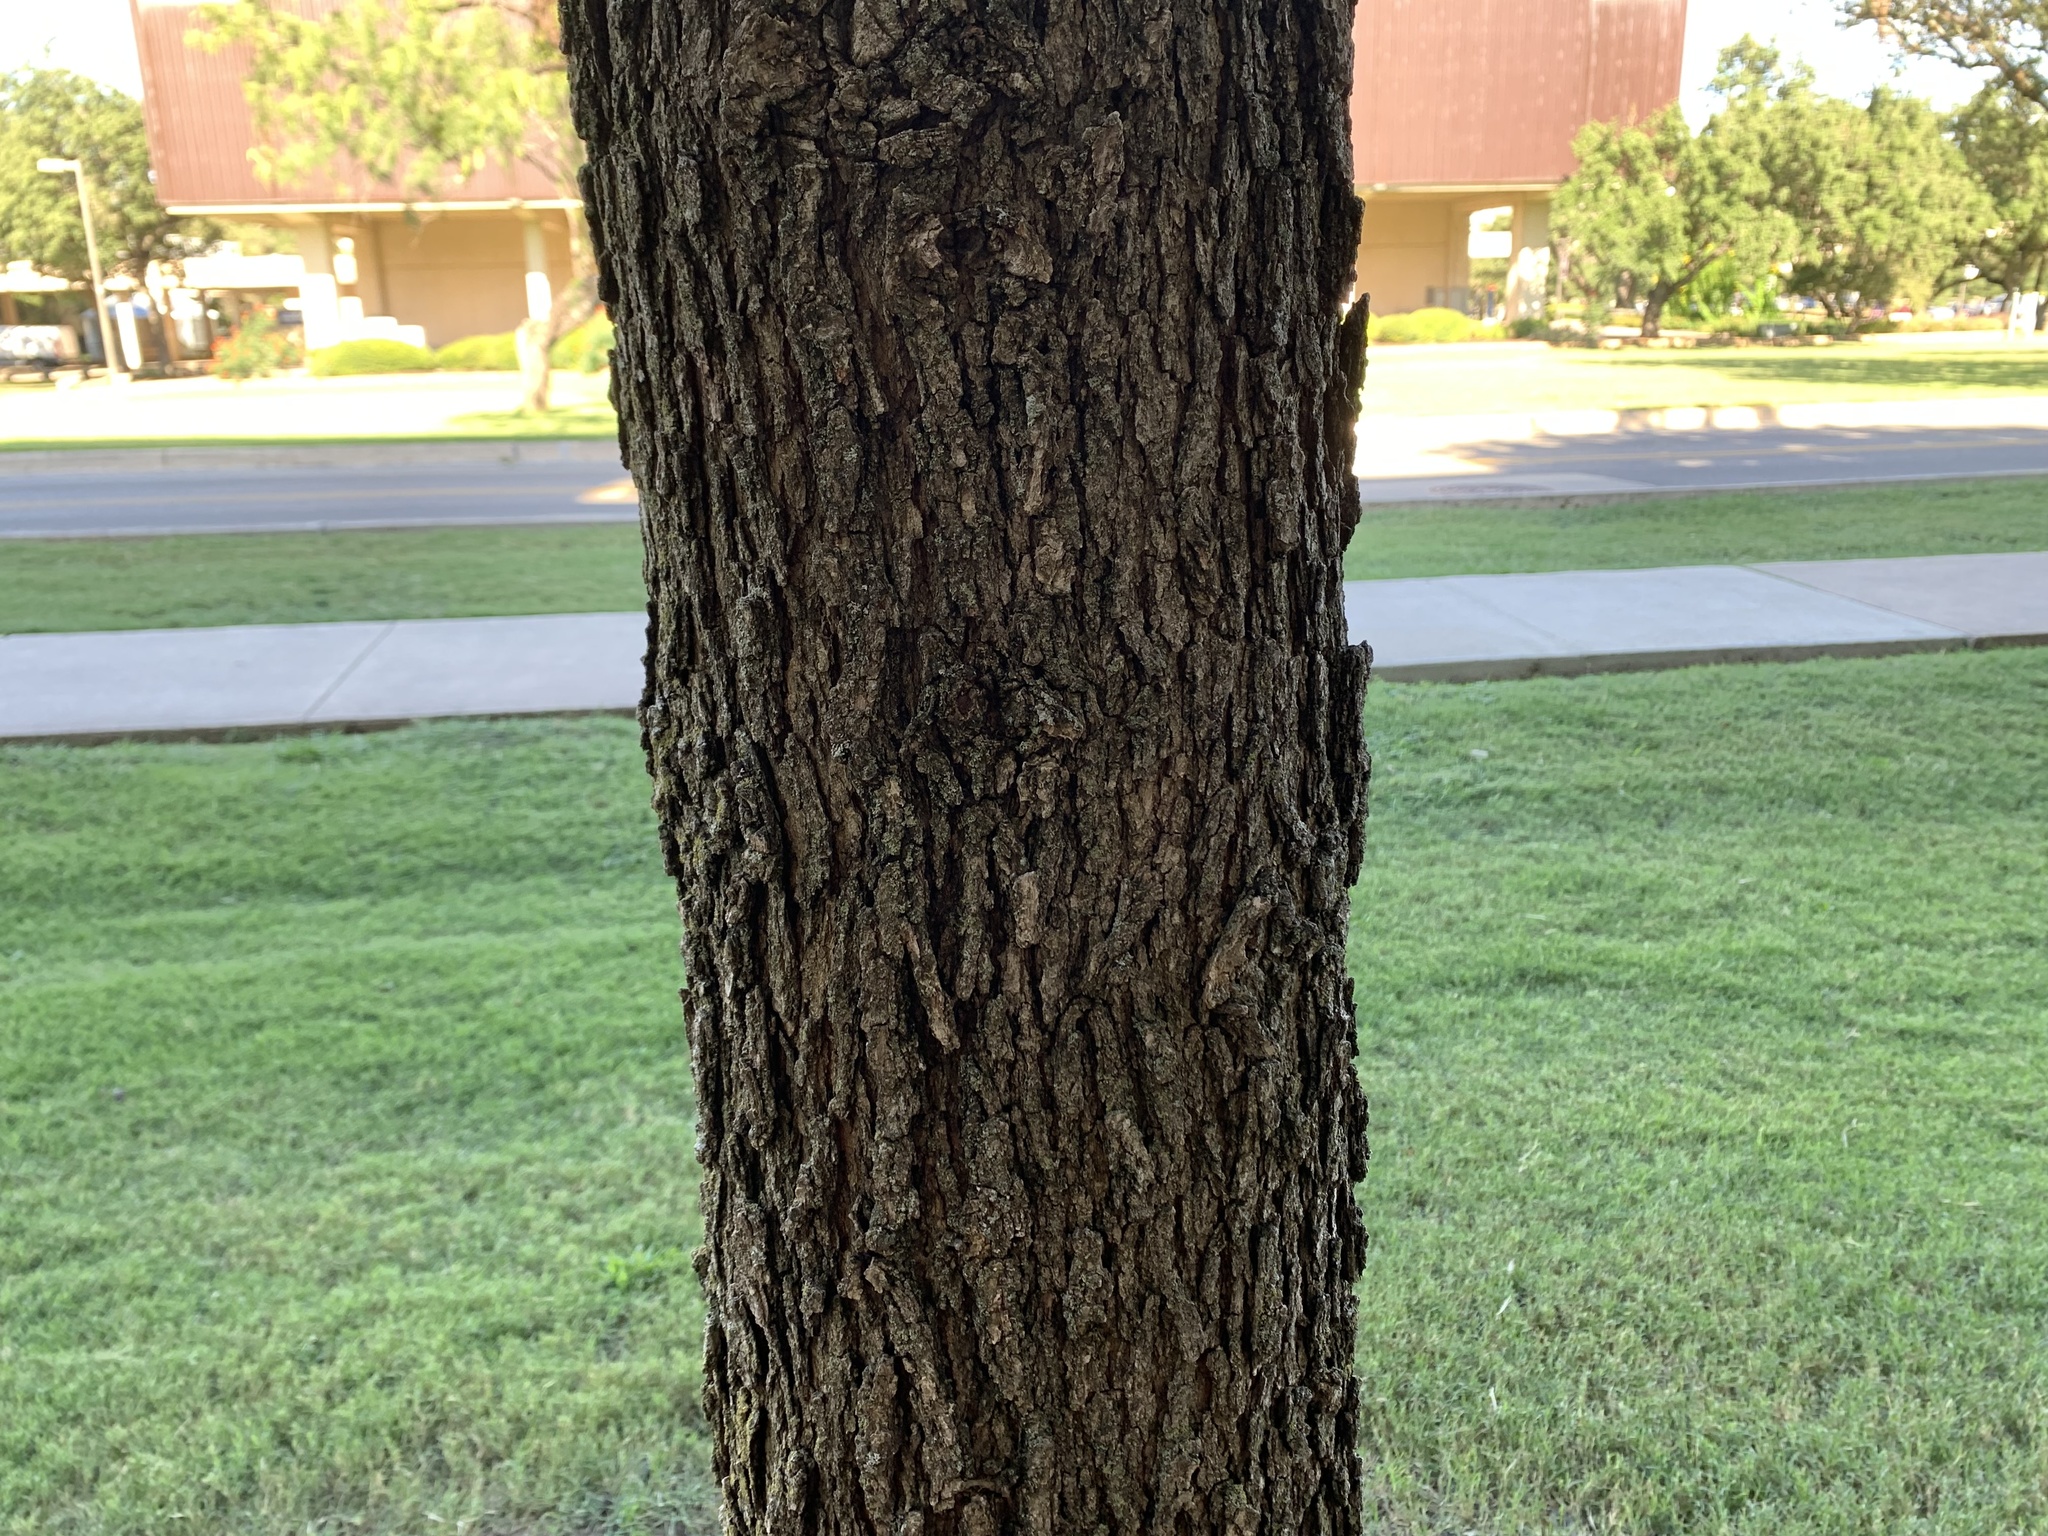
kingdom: Plantae
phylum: Tracheophyta
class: Magnoliopsida
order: Fagales
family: Fagaceae
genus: Quercus
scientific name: Quercus macrocarpa
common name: Bur oak
